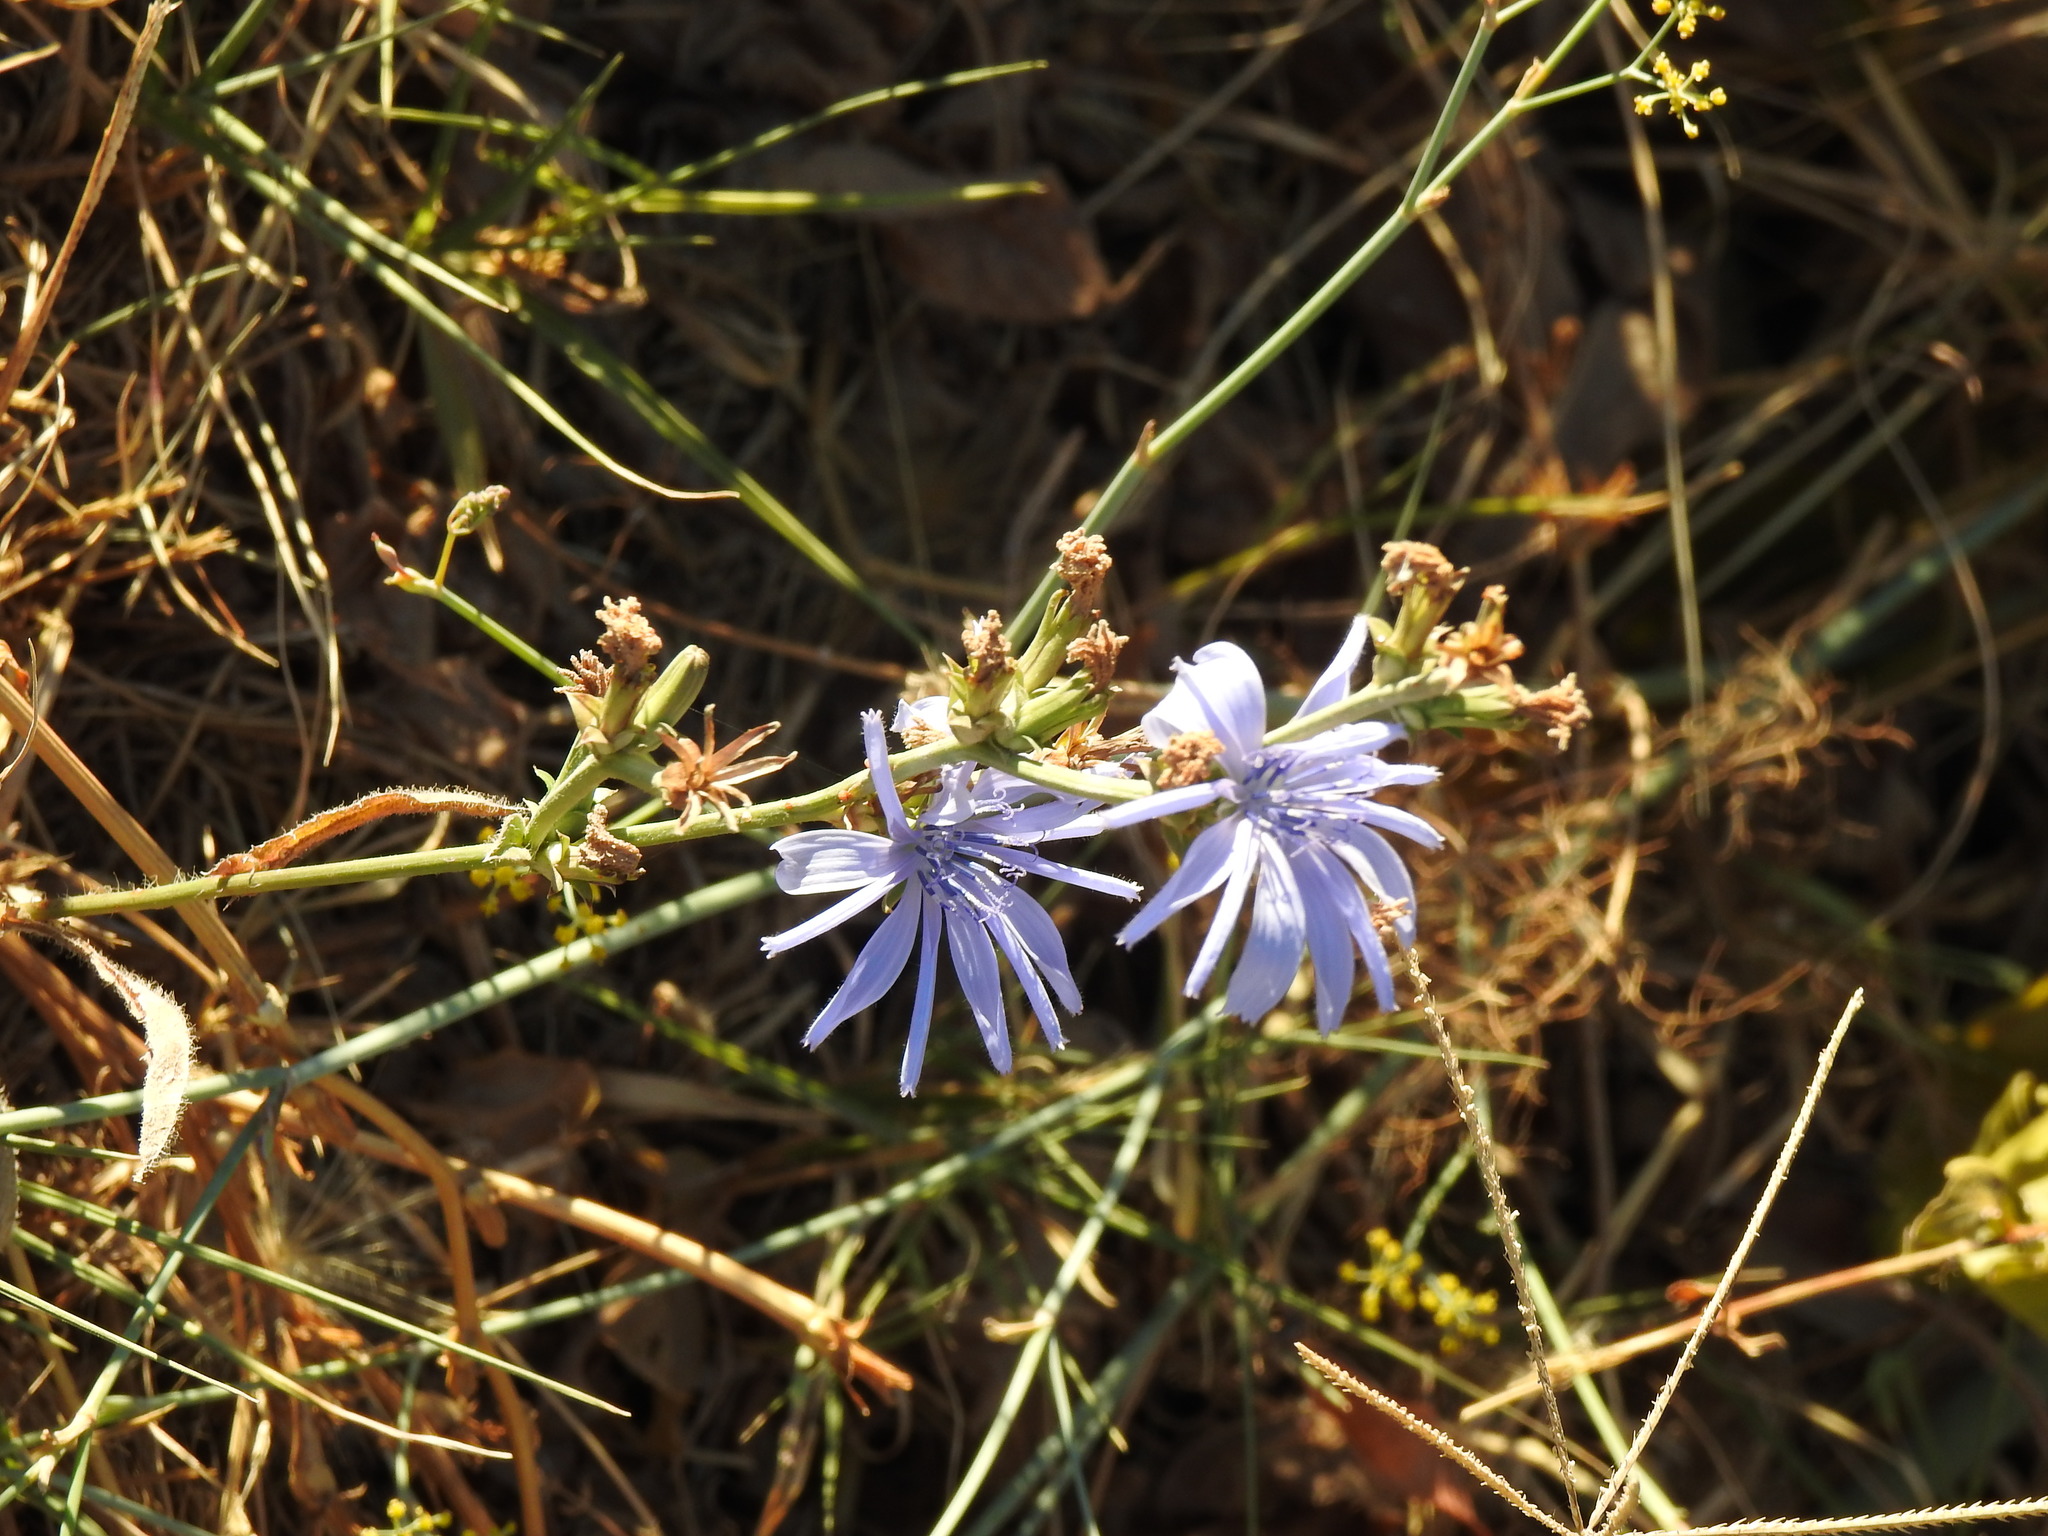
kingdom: Plantae
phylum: Tracheophyta
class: Magnoliopsida
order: Asterales
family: Asteraceae
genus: Cichorium
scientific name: Cichorium intybus
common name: Chicory
